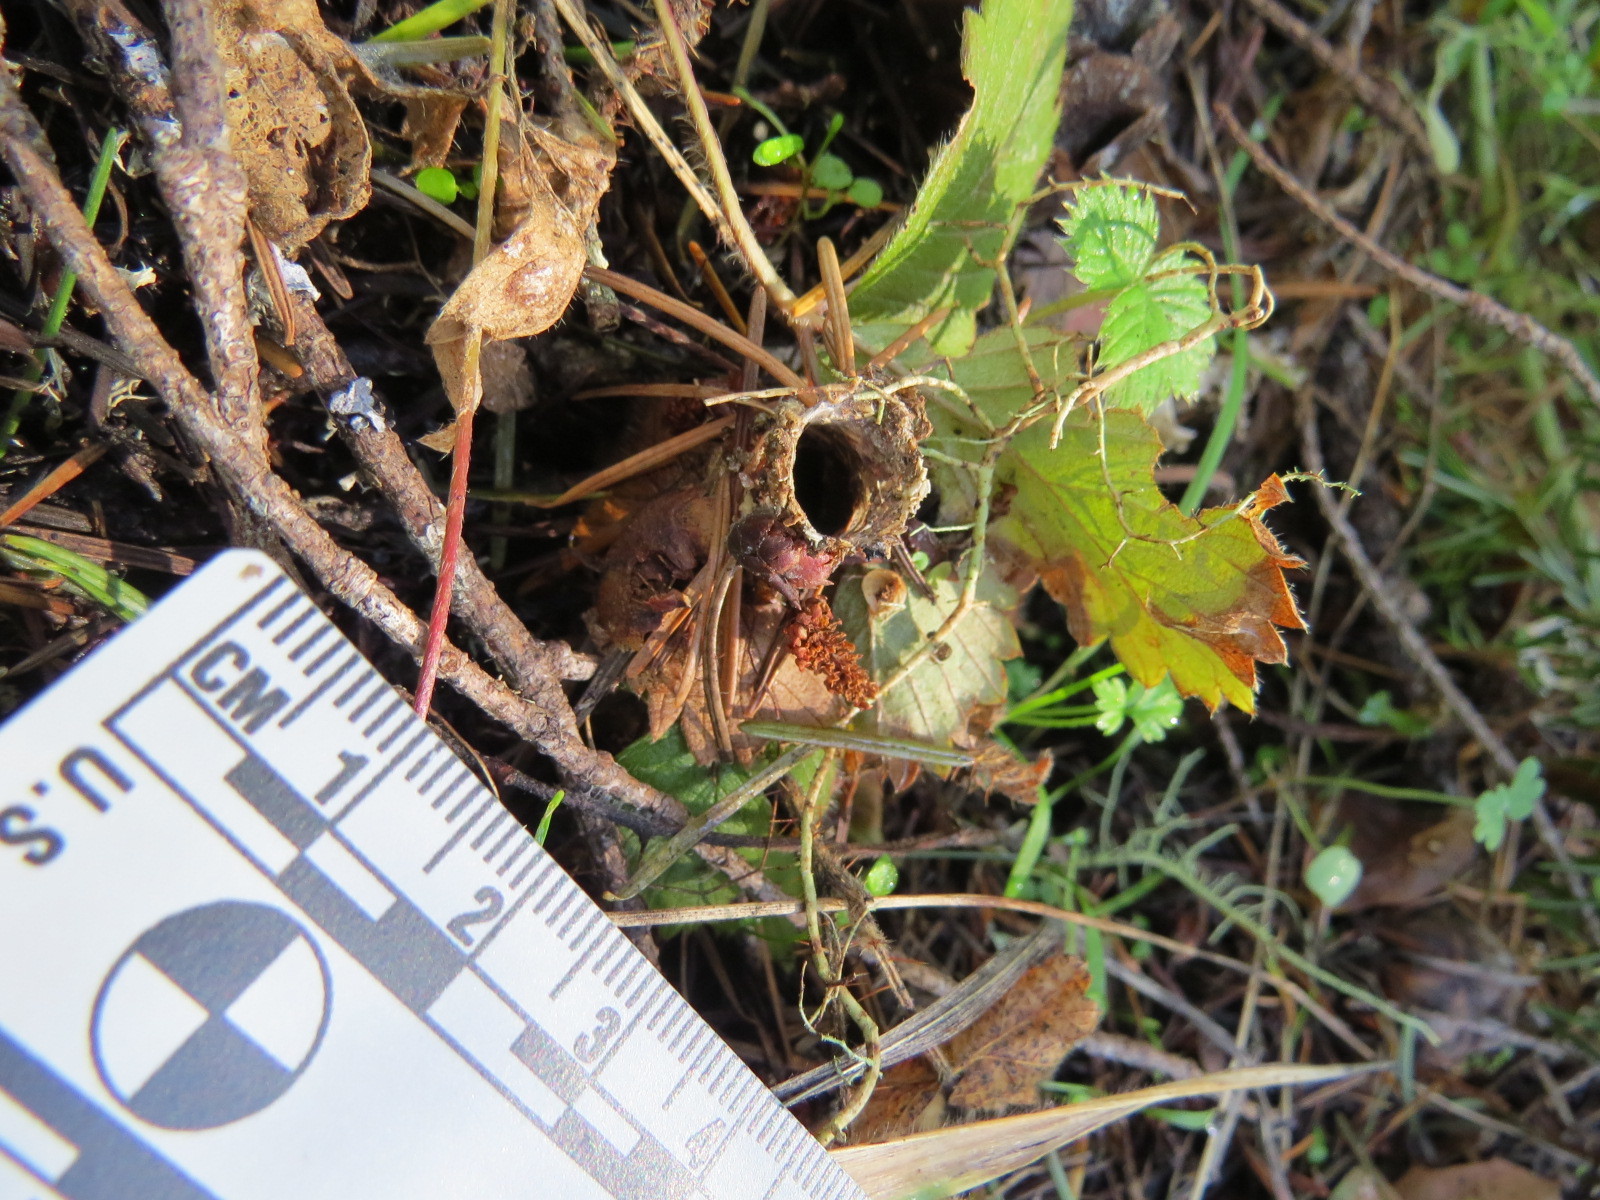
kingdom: Animalia
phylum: Arthropoda
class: Arachnida
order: Araneae
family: Antrodiaetidae
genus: Atypoides
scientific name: Atypoides riversi
